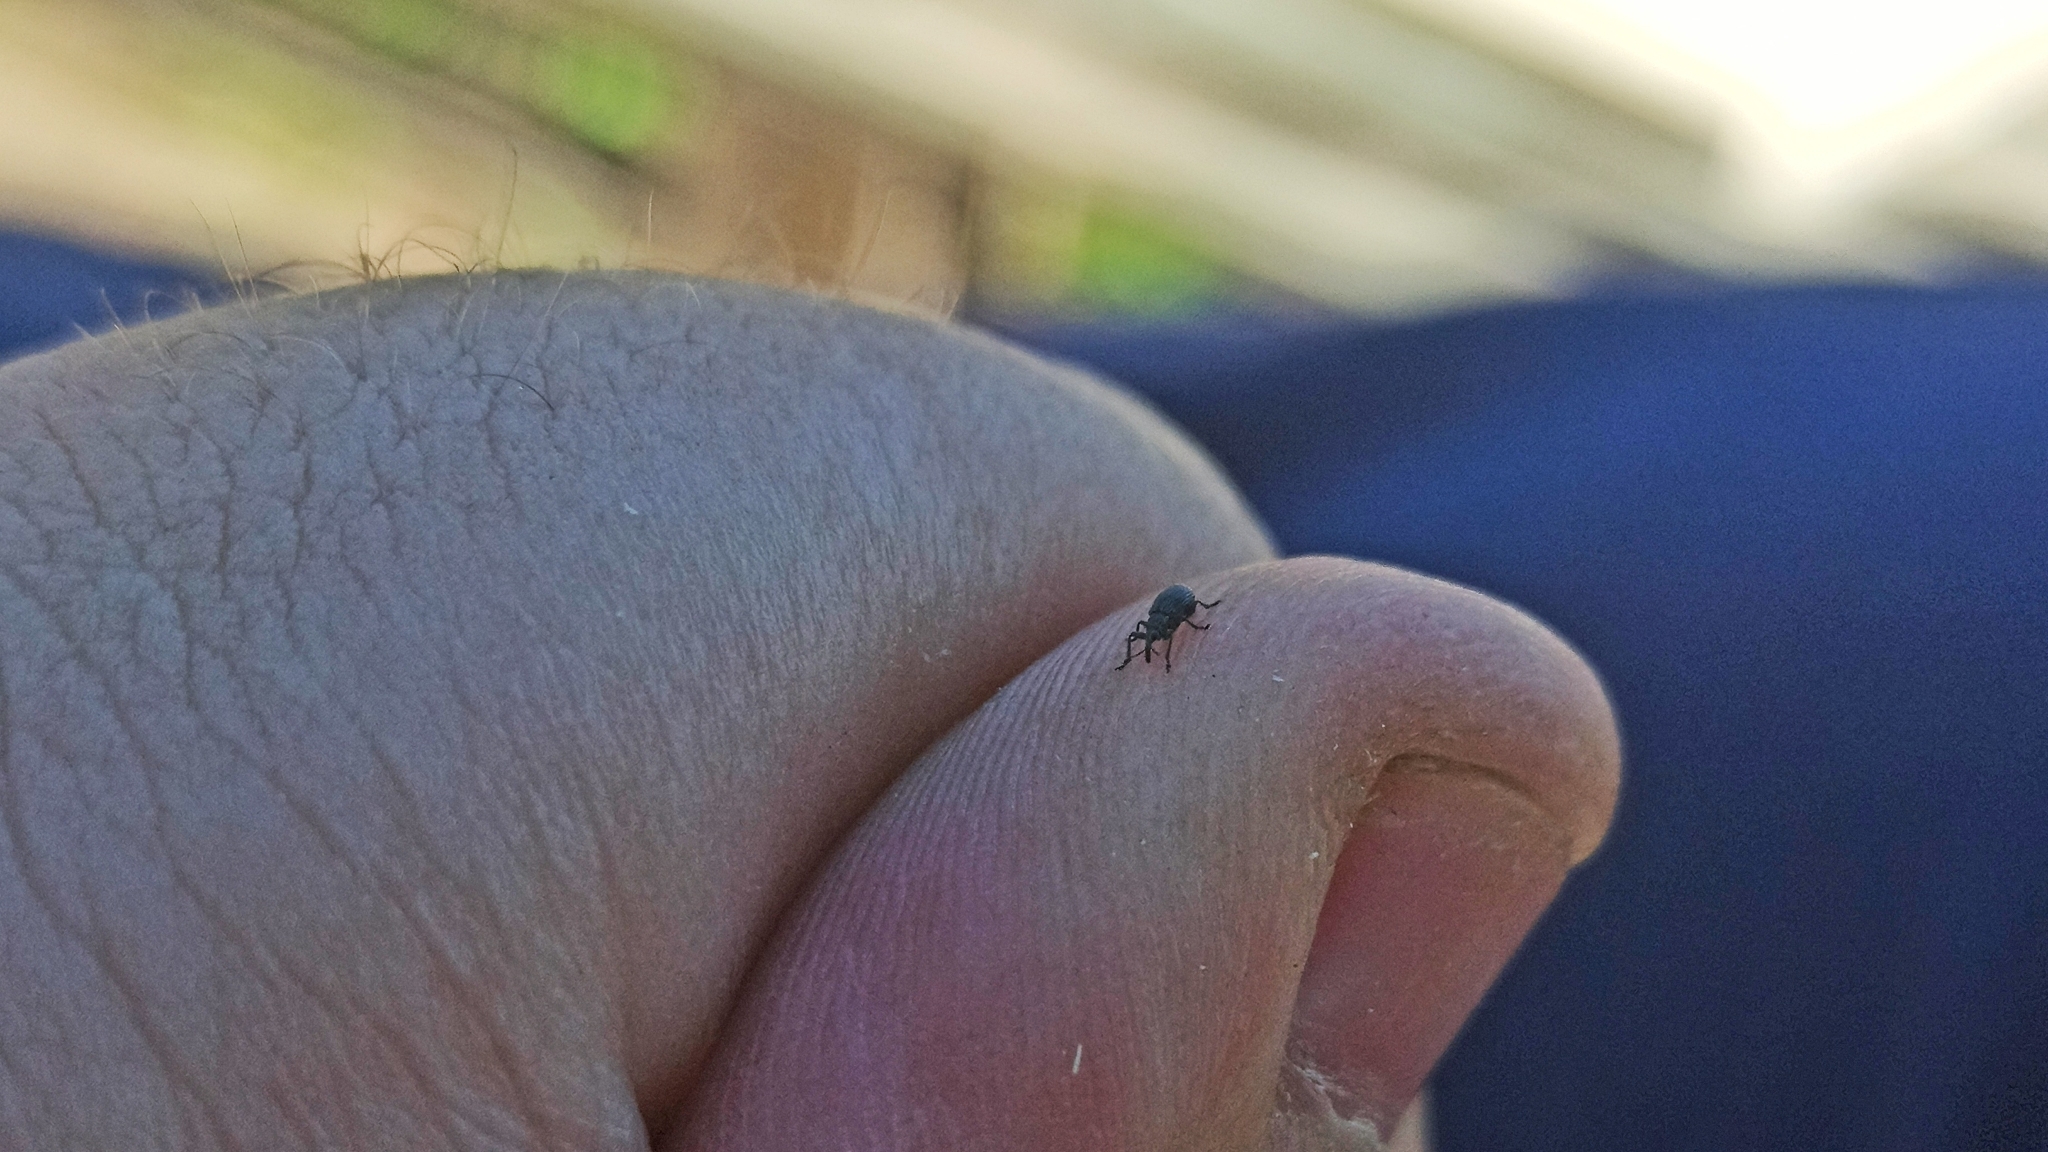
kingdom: Animalia
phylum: Arthropoda
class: Insecta
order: Coleoptera
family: Apionidae
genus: Protapion
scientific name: Protapion fulvipes
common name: White clover seed weevil
